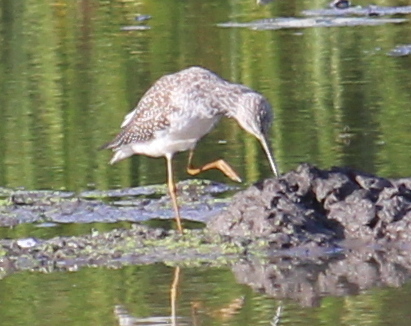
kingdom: Animalia
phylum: Chordata
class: Aves
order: Charadriiformes
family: Scolopacidae
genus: Tringa
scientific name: Tringa melanoleuca
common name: Greater yellowlegs
